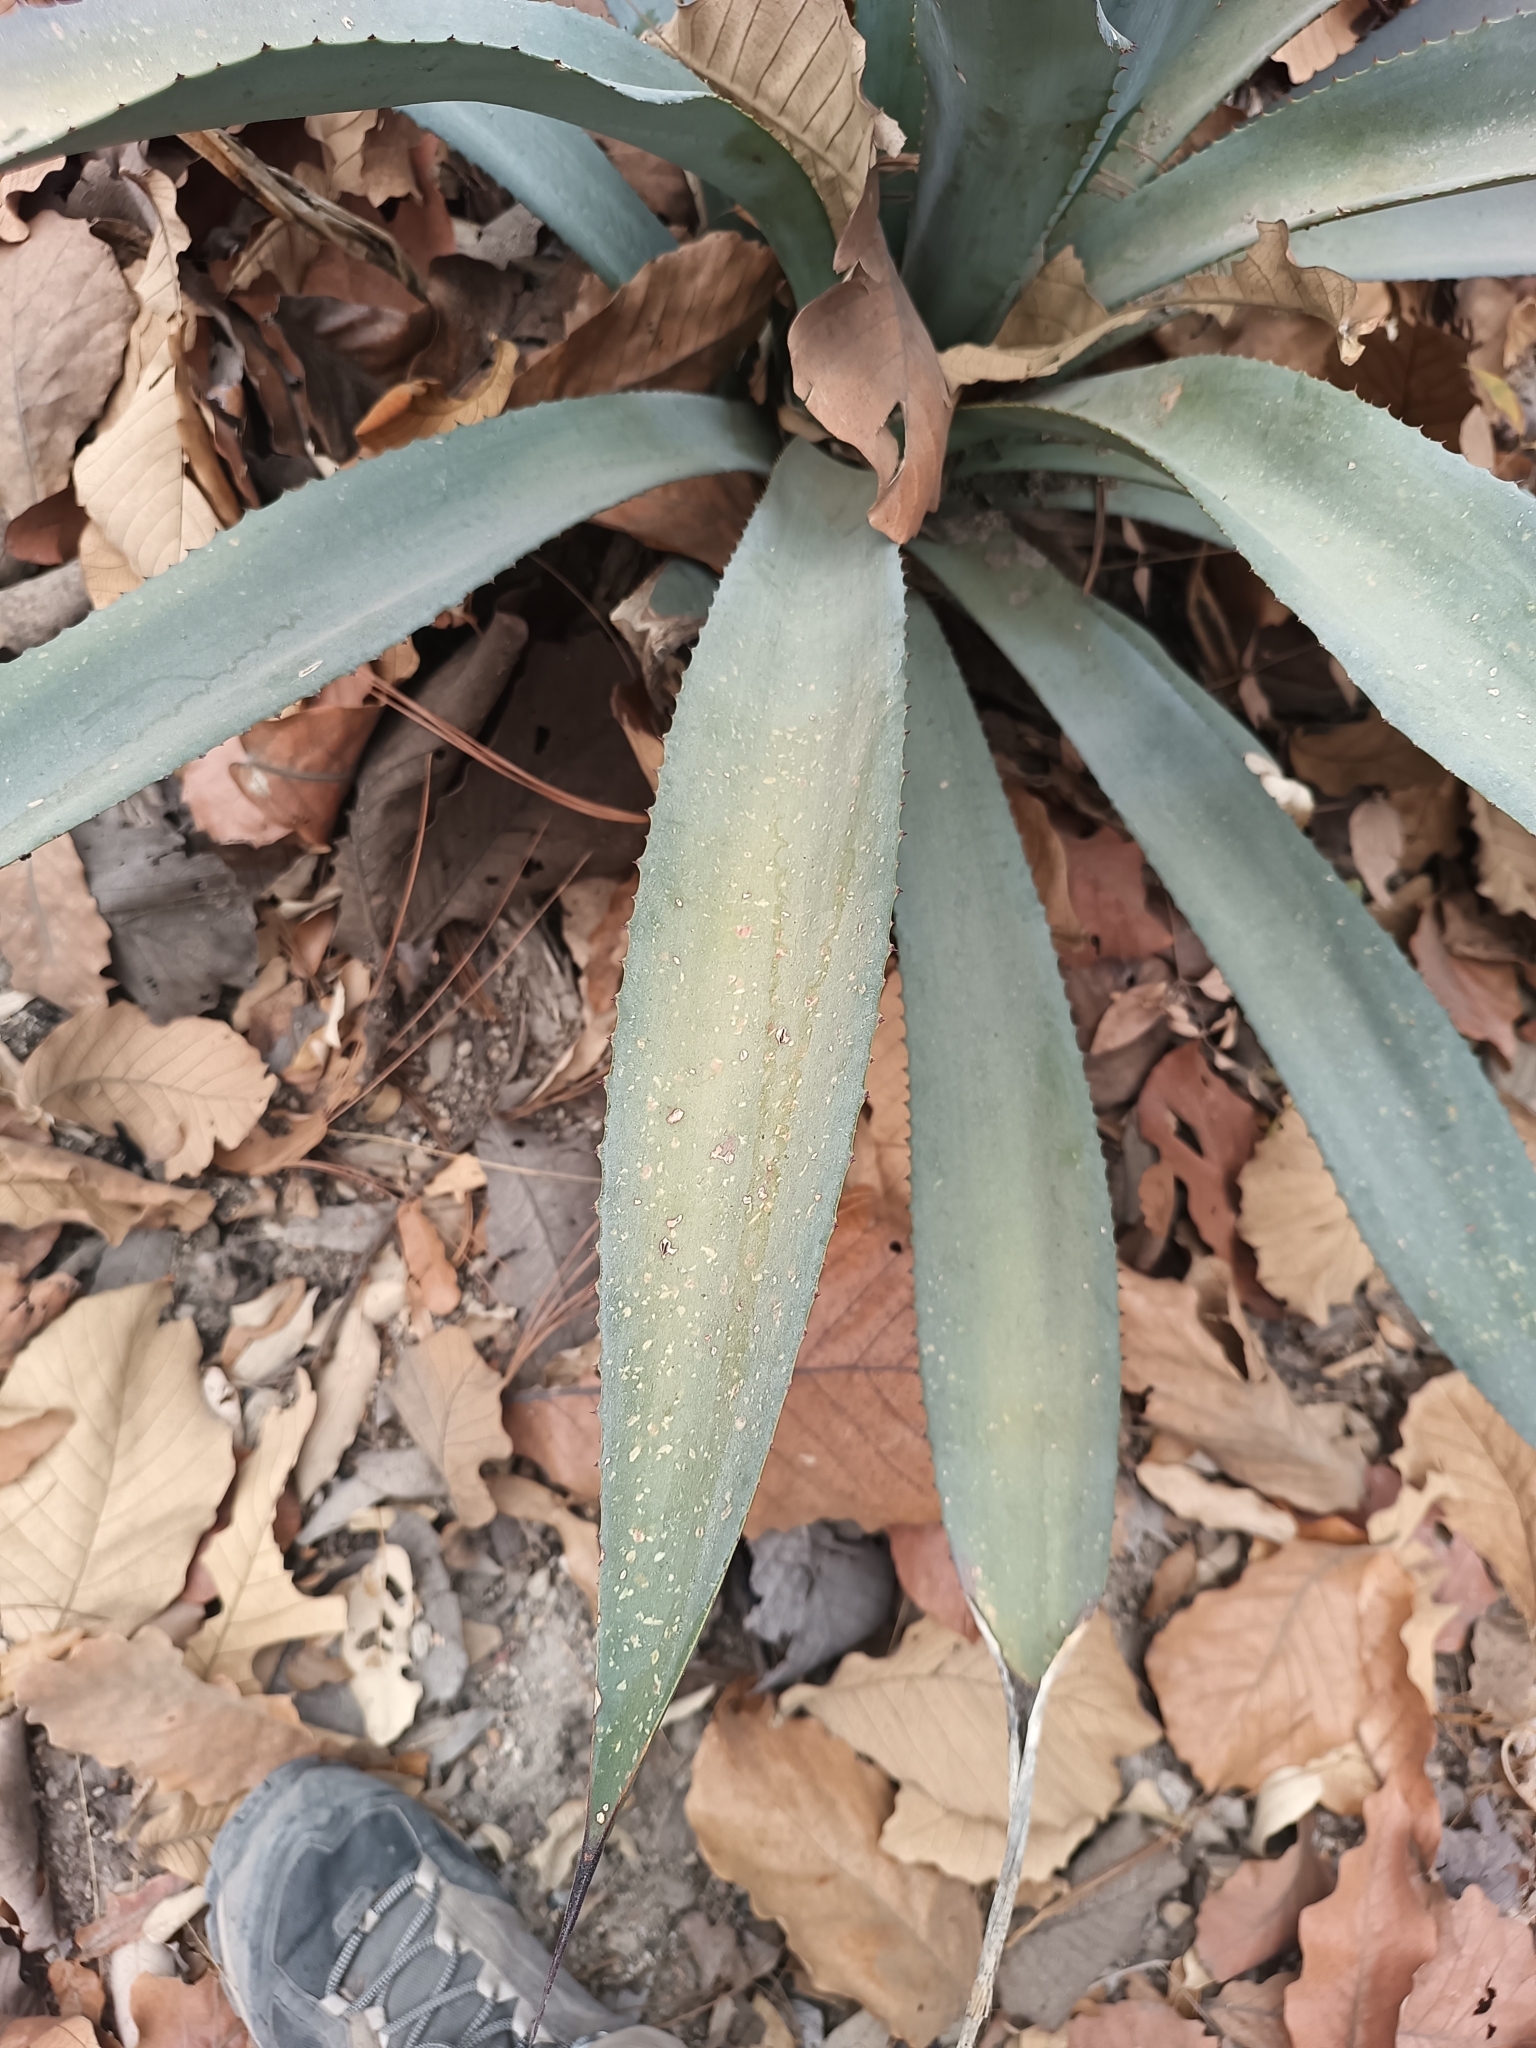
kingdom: Plantae
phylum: Tracheophyta
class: Liliopsida
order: Asparagales
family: Asparagaceae
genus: Agave
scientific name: Agave inaequidens
